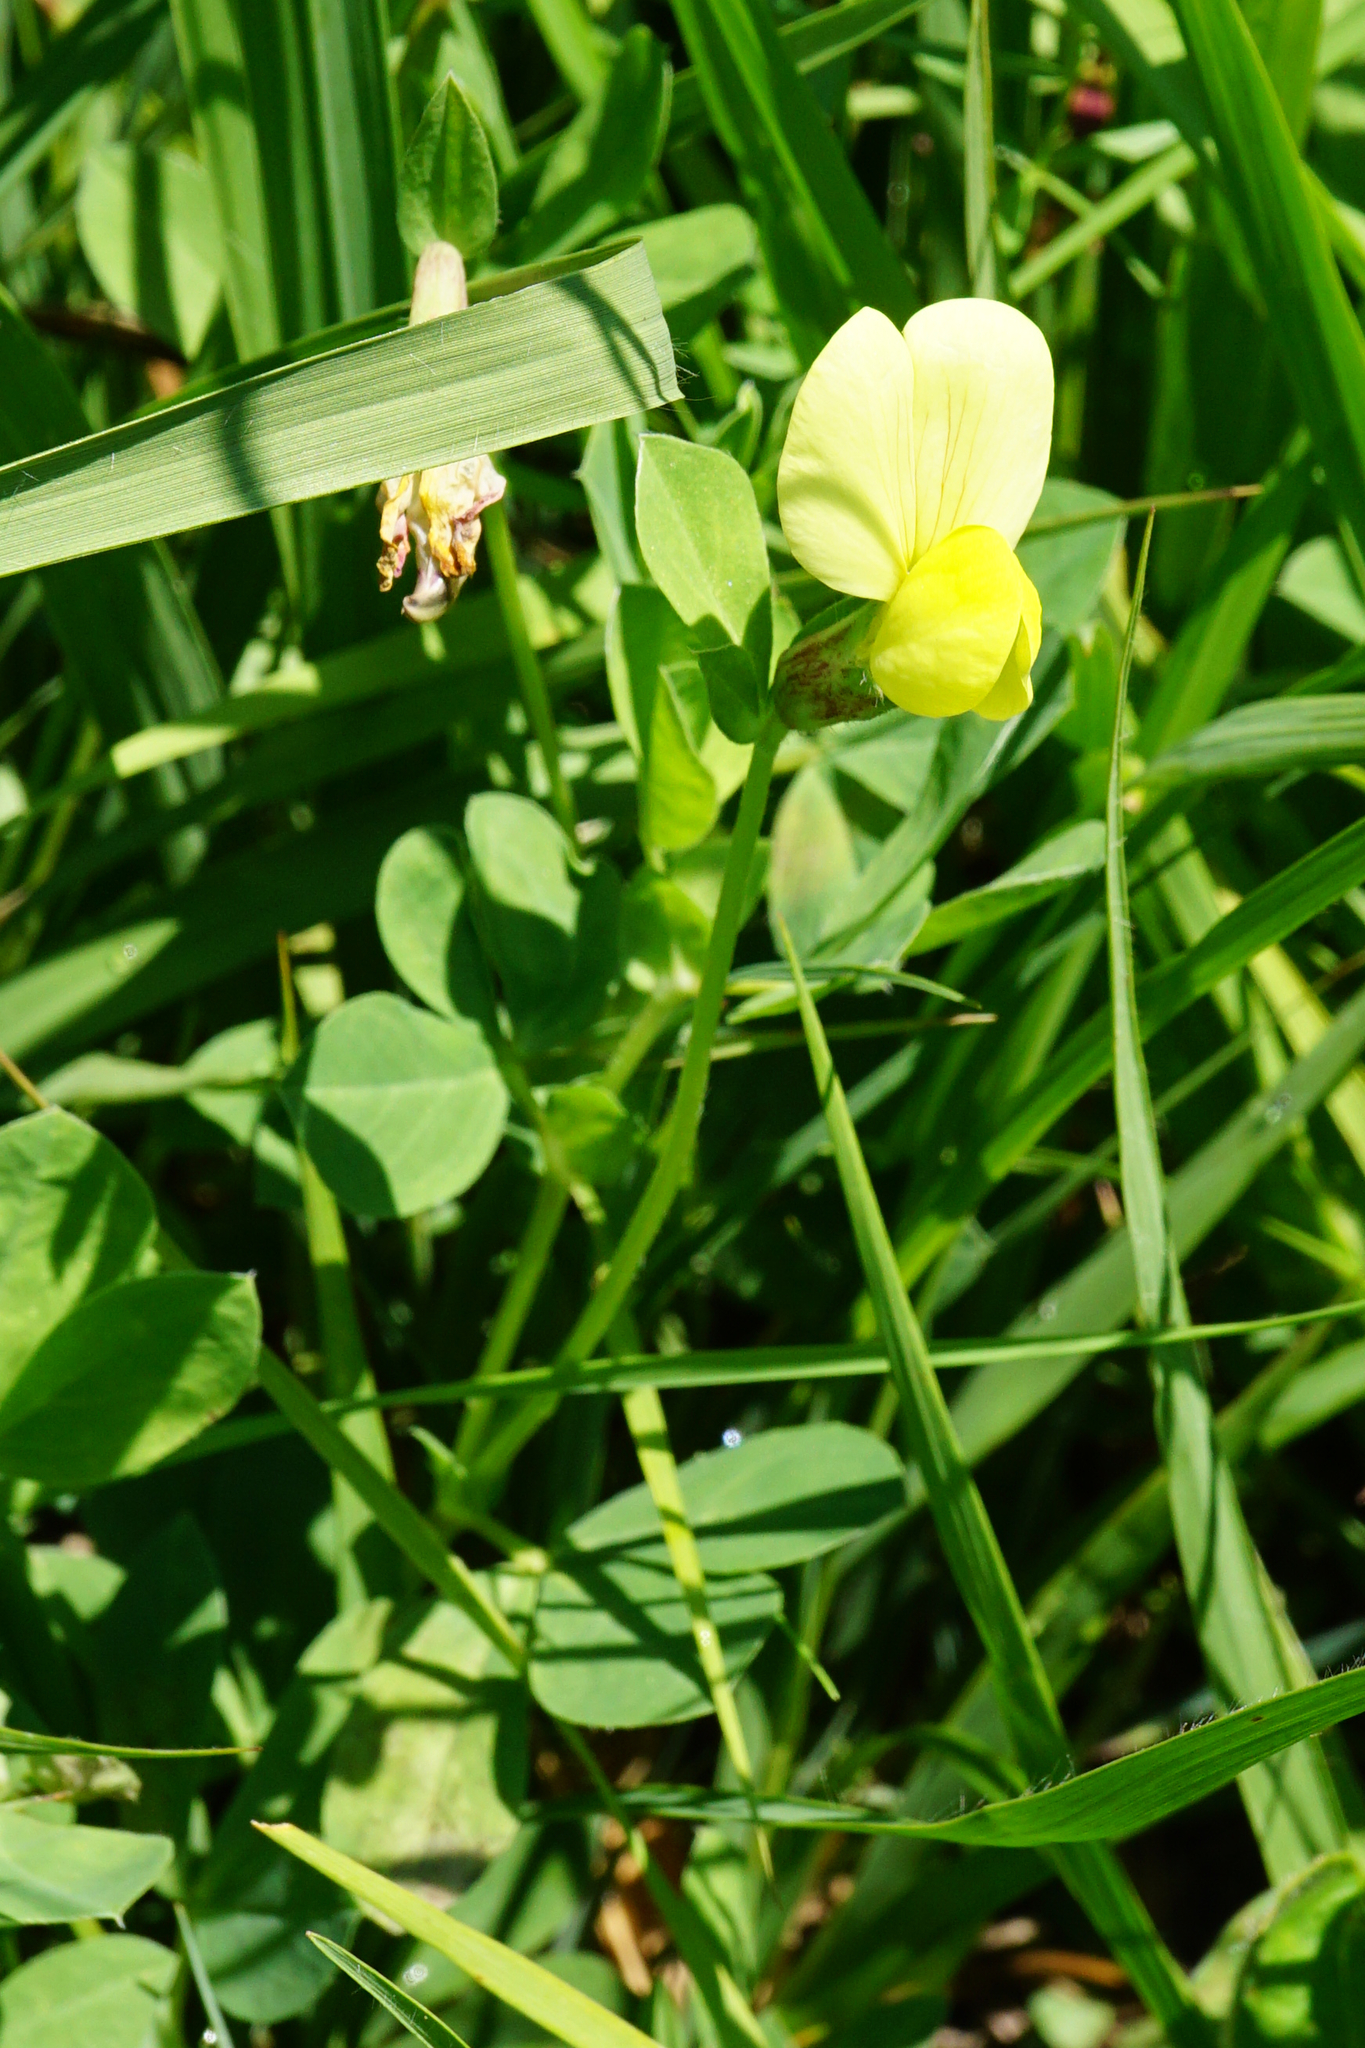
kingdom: Plantae
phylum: Tracheophyta
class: Magnoliopsida
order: Fabales
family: Fabaceae
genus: Lotus
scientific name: Lotus maritimus
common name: Dragon's-teeth
